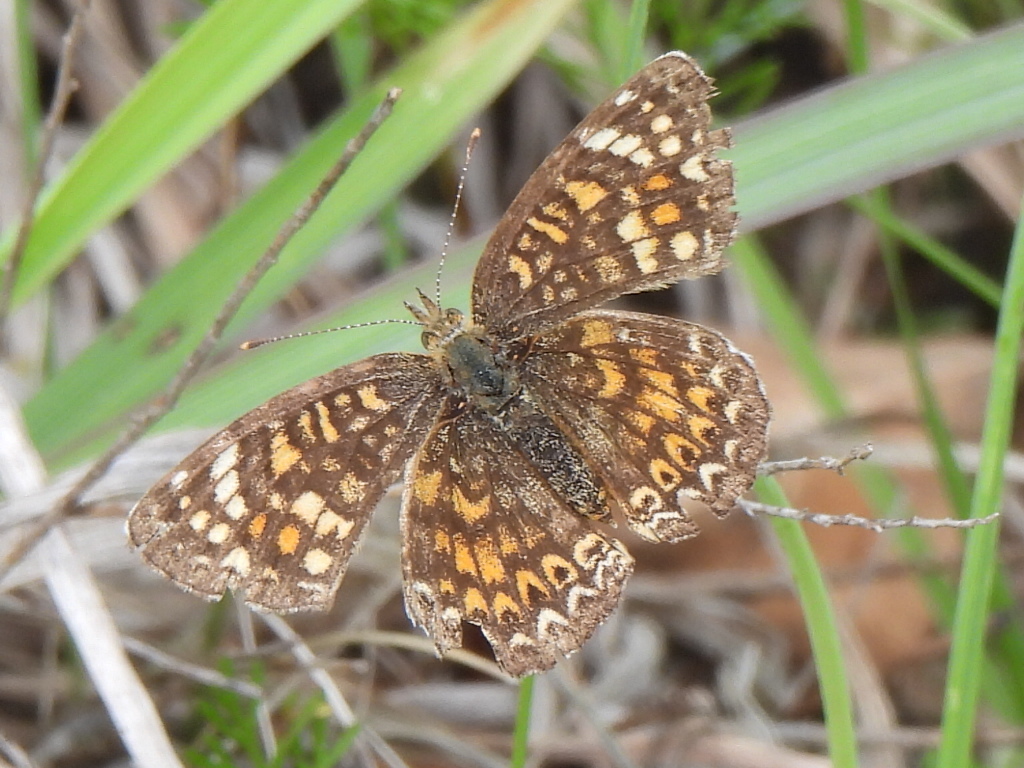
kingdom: Animalia
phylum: Arthropoda
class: Insecta
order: Lepidoptera
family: Nymphalidae
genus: Phyciodes
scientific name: Phyciodes vesta
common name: Vesta crescent
